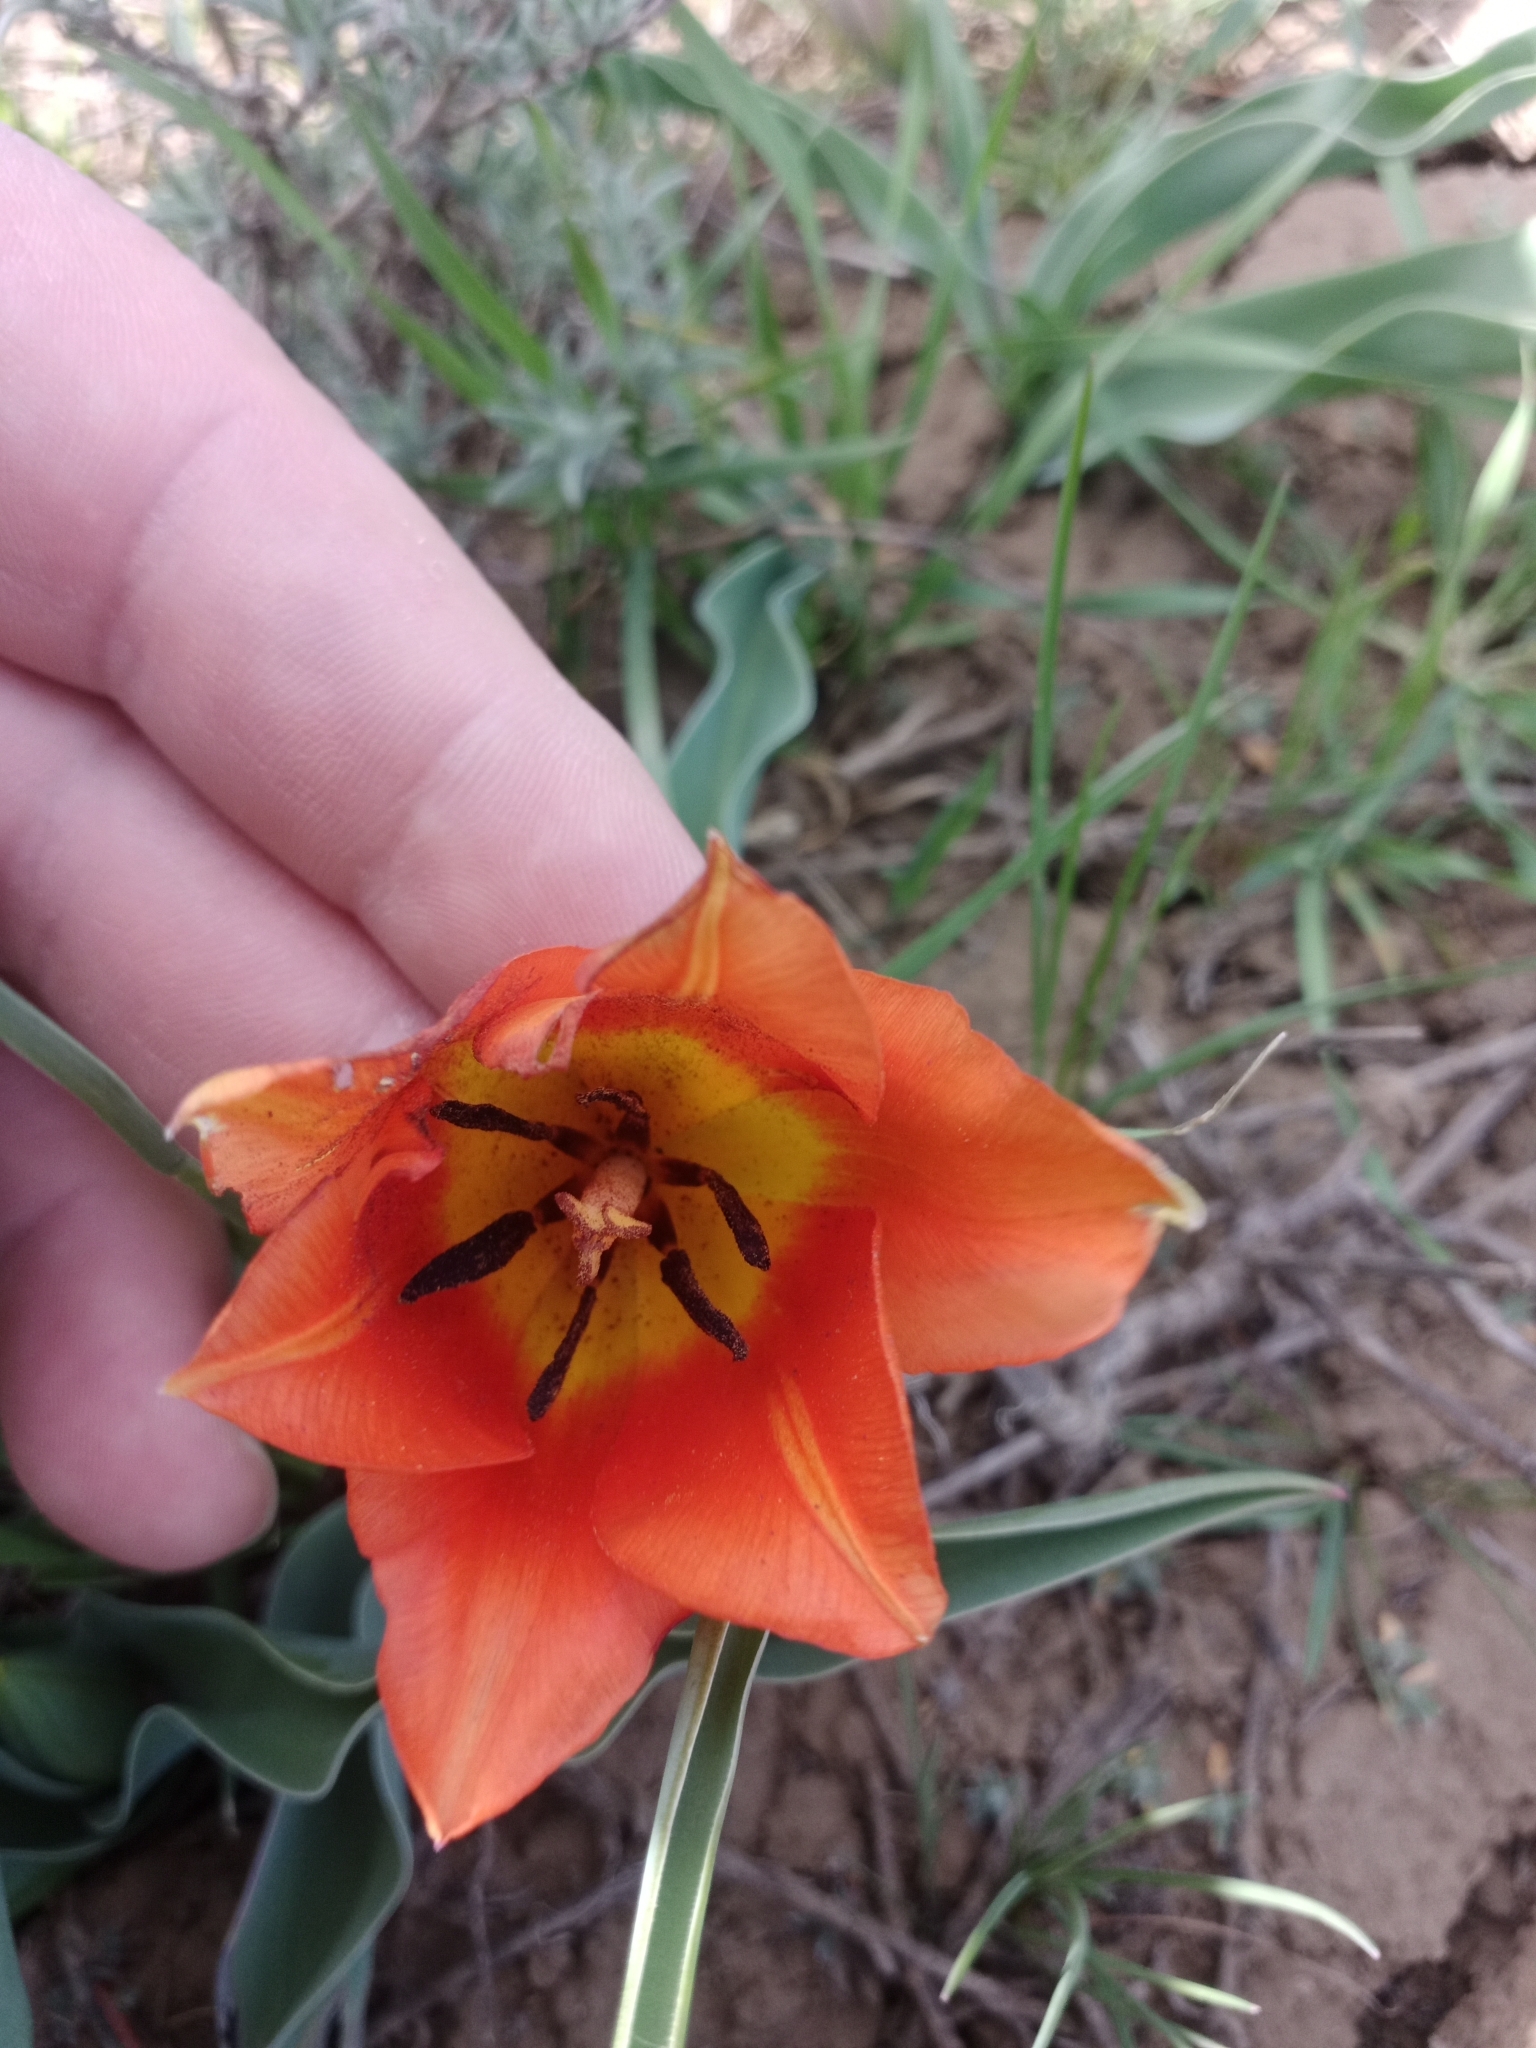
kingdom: Plantae
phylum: Tracheophyta
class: Liliopsida
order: Liliales
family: Liliaceae
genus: Tulipa
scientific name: Tulipa suaveolens
